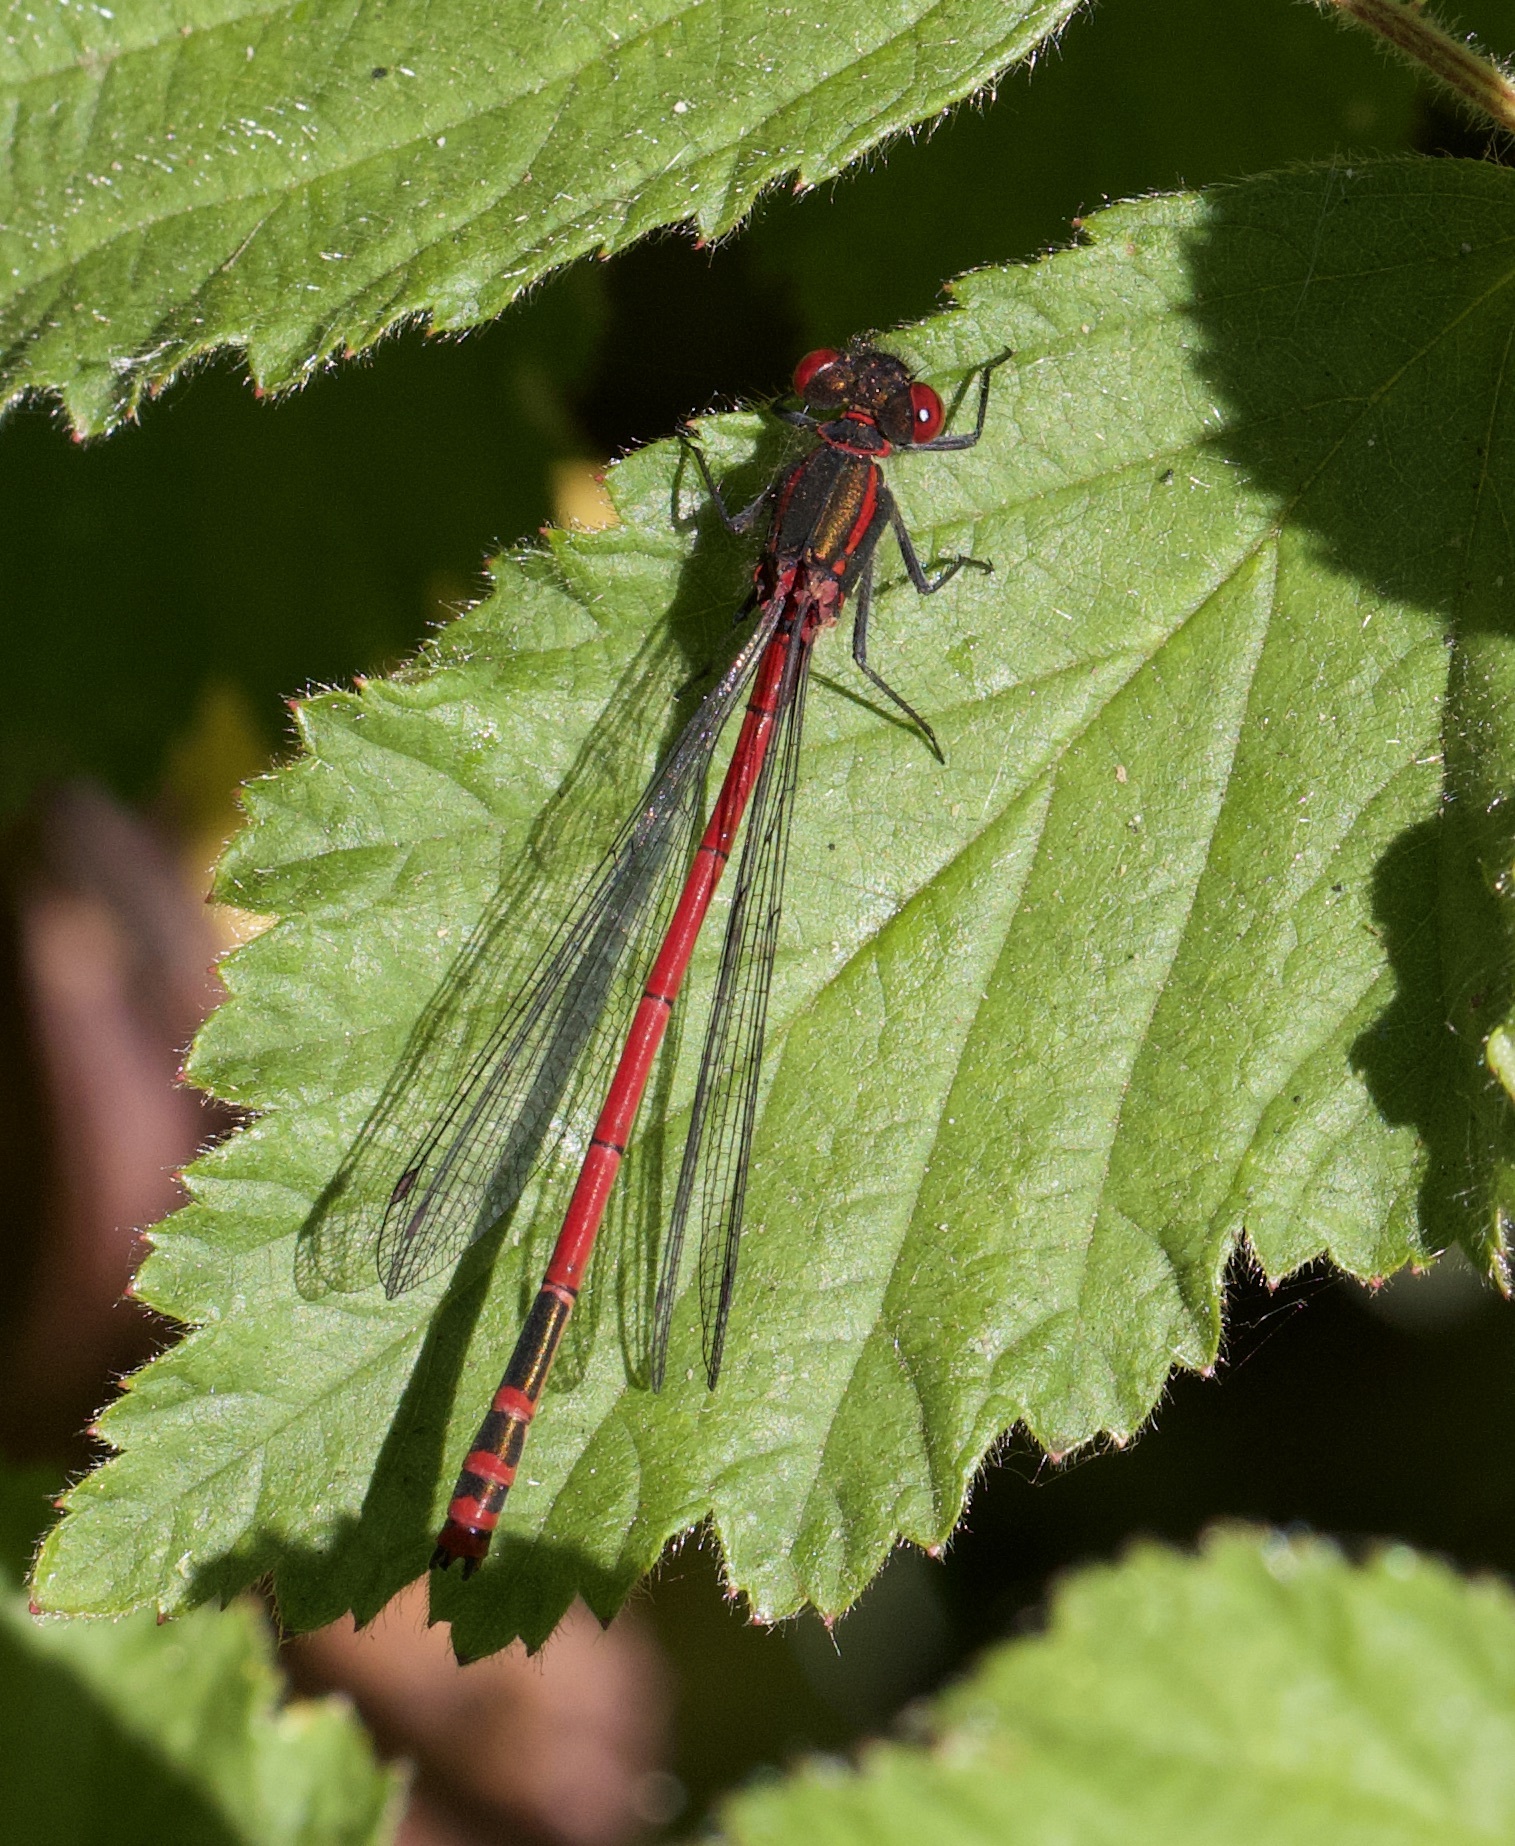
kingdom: Animalia
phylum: Arthropoda
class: Insecta
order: Odonata
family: Coenagrionidae
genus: Pyrrhosoma
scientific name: Pyrrhosoma nymphula
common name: Large red damsel
